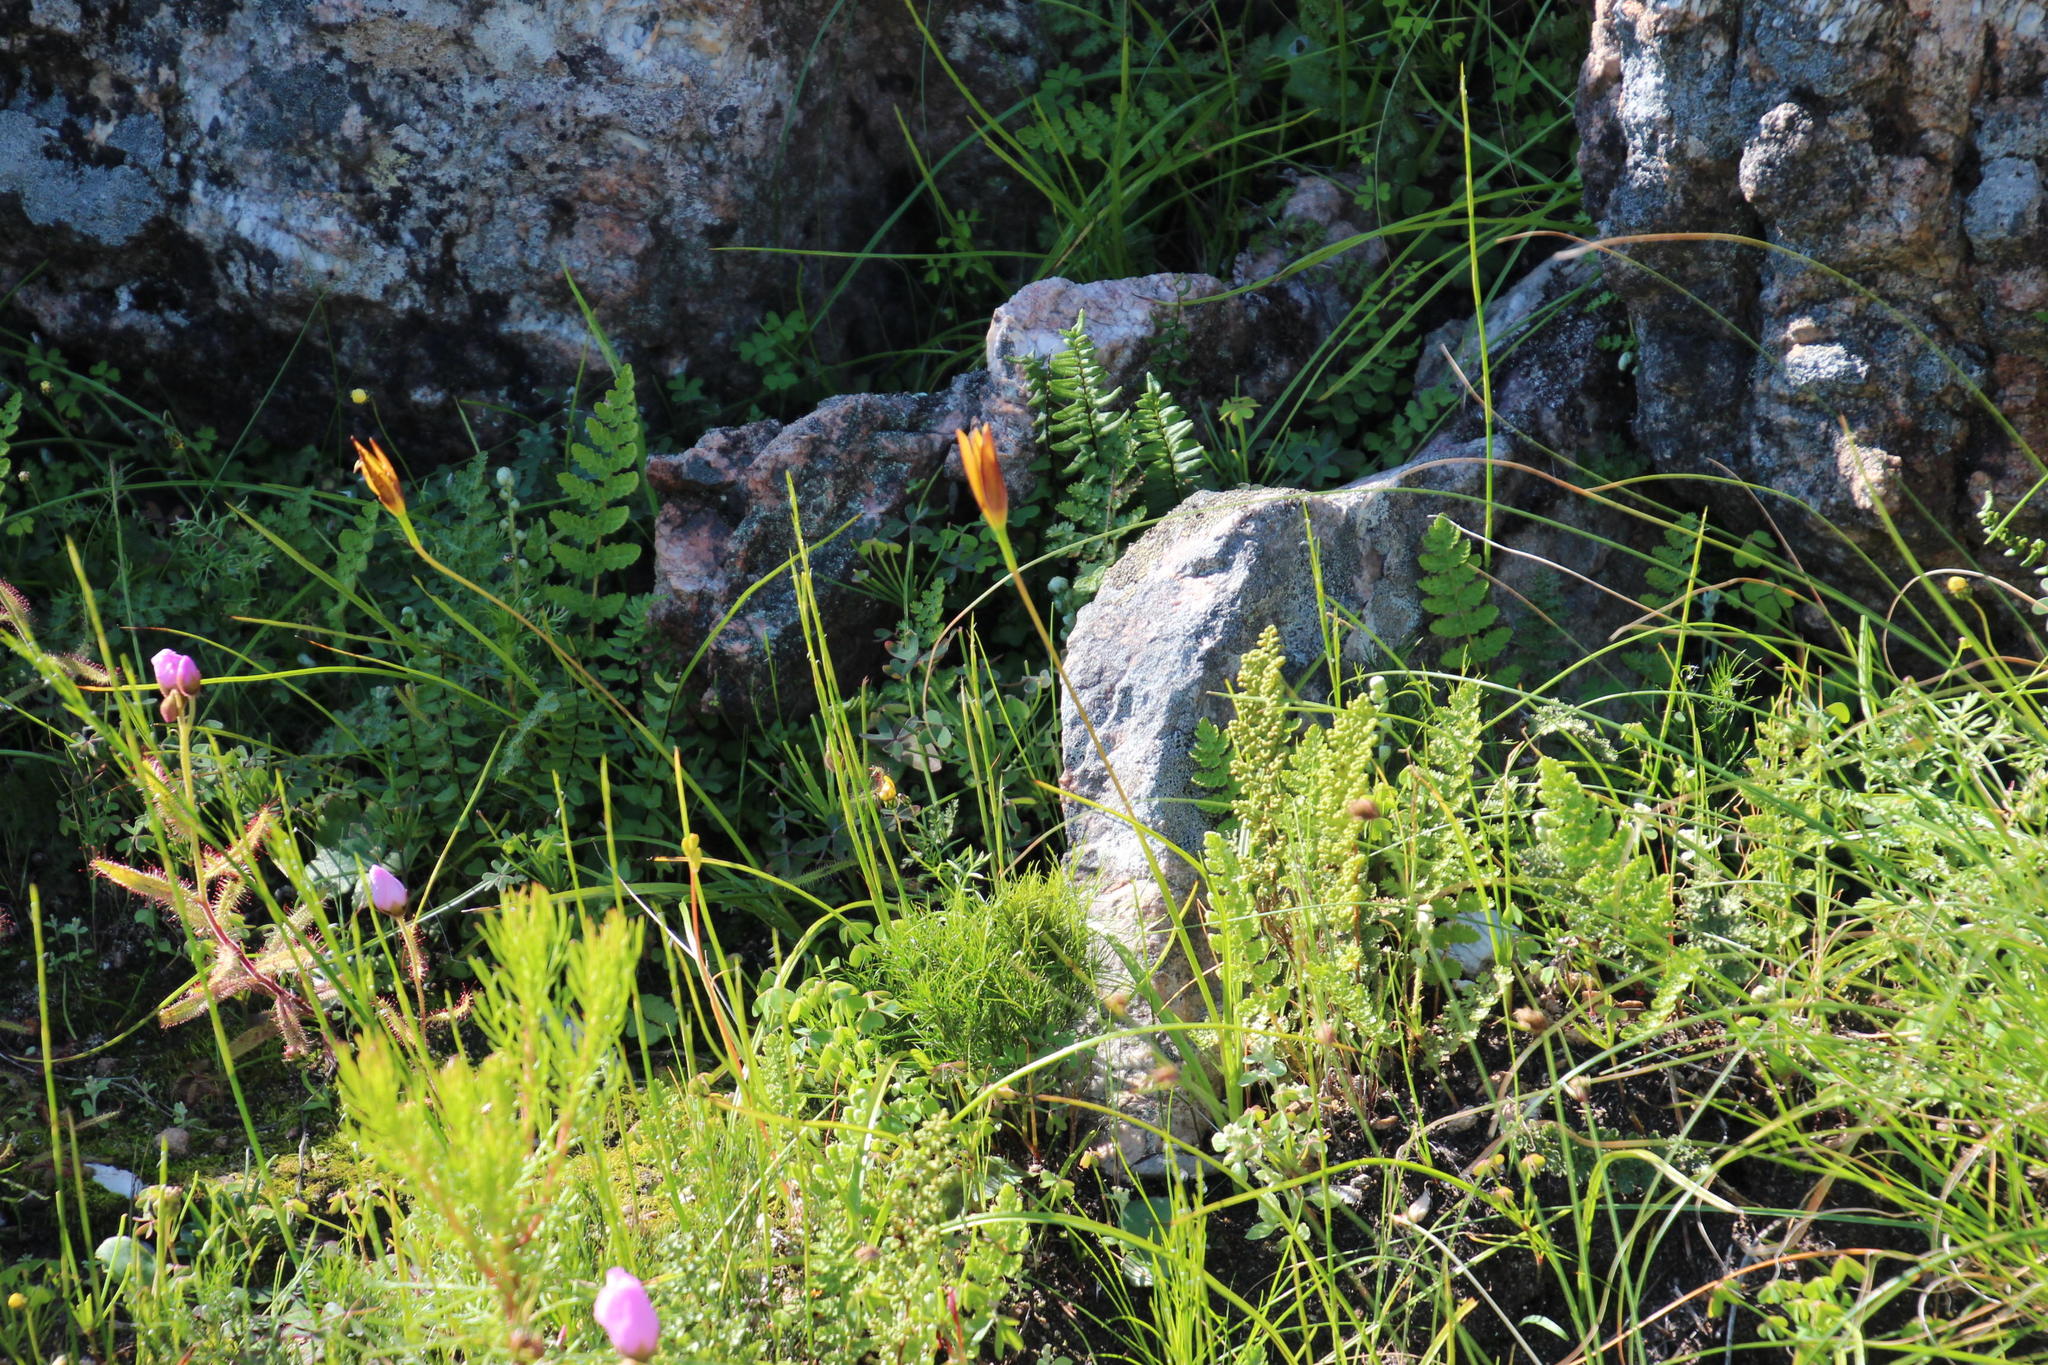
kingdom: Plantae
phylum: Tracheophyta
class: Polypodiopsida
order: Schizaeales
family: Anemiaceae
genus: Anemia
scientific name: Anemia caffrorum
